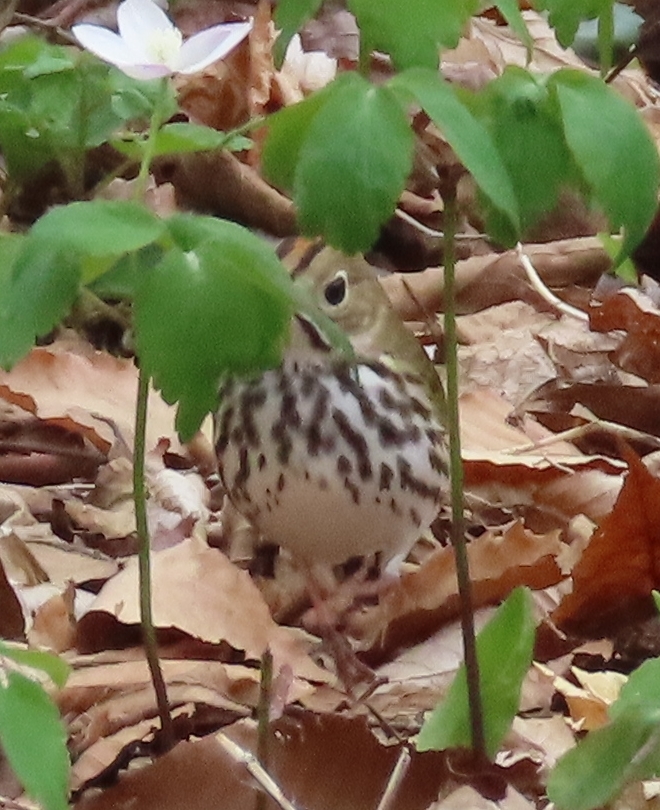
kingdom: Animalia
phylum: Chordata
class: Aves
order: Passeriformes
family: Parulidae
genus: Seiurus
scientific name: Seiurus aurocapilla
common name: Ovenbird
